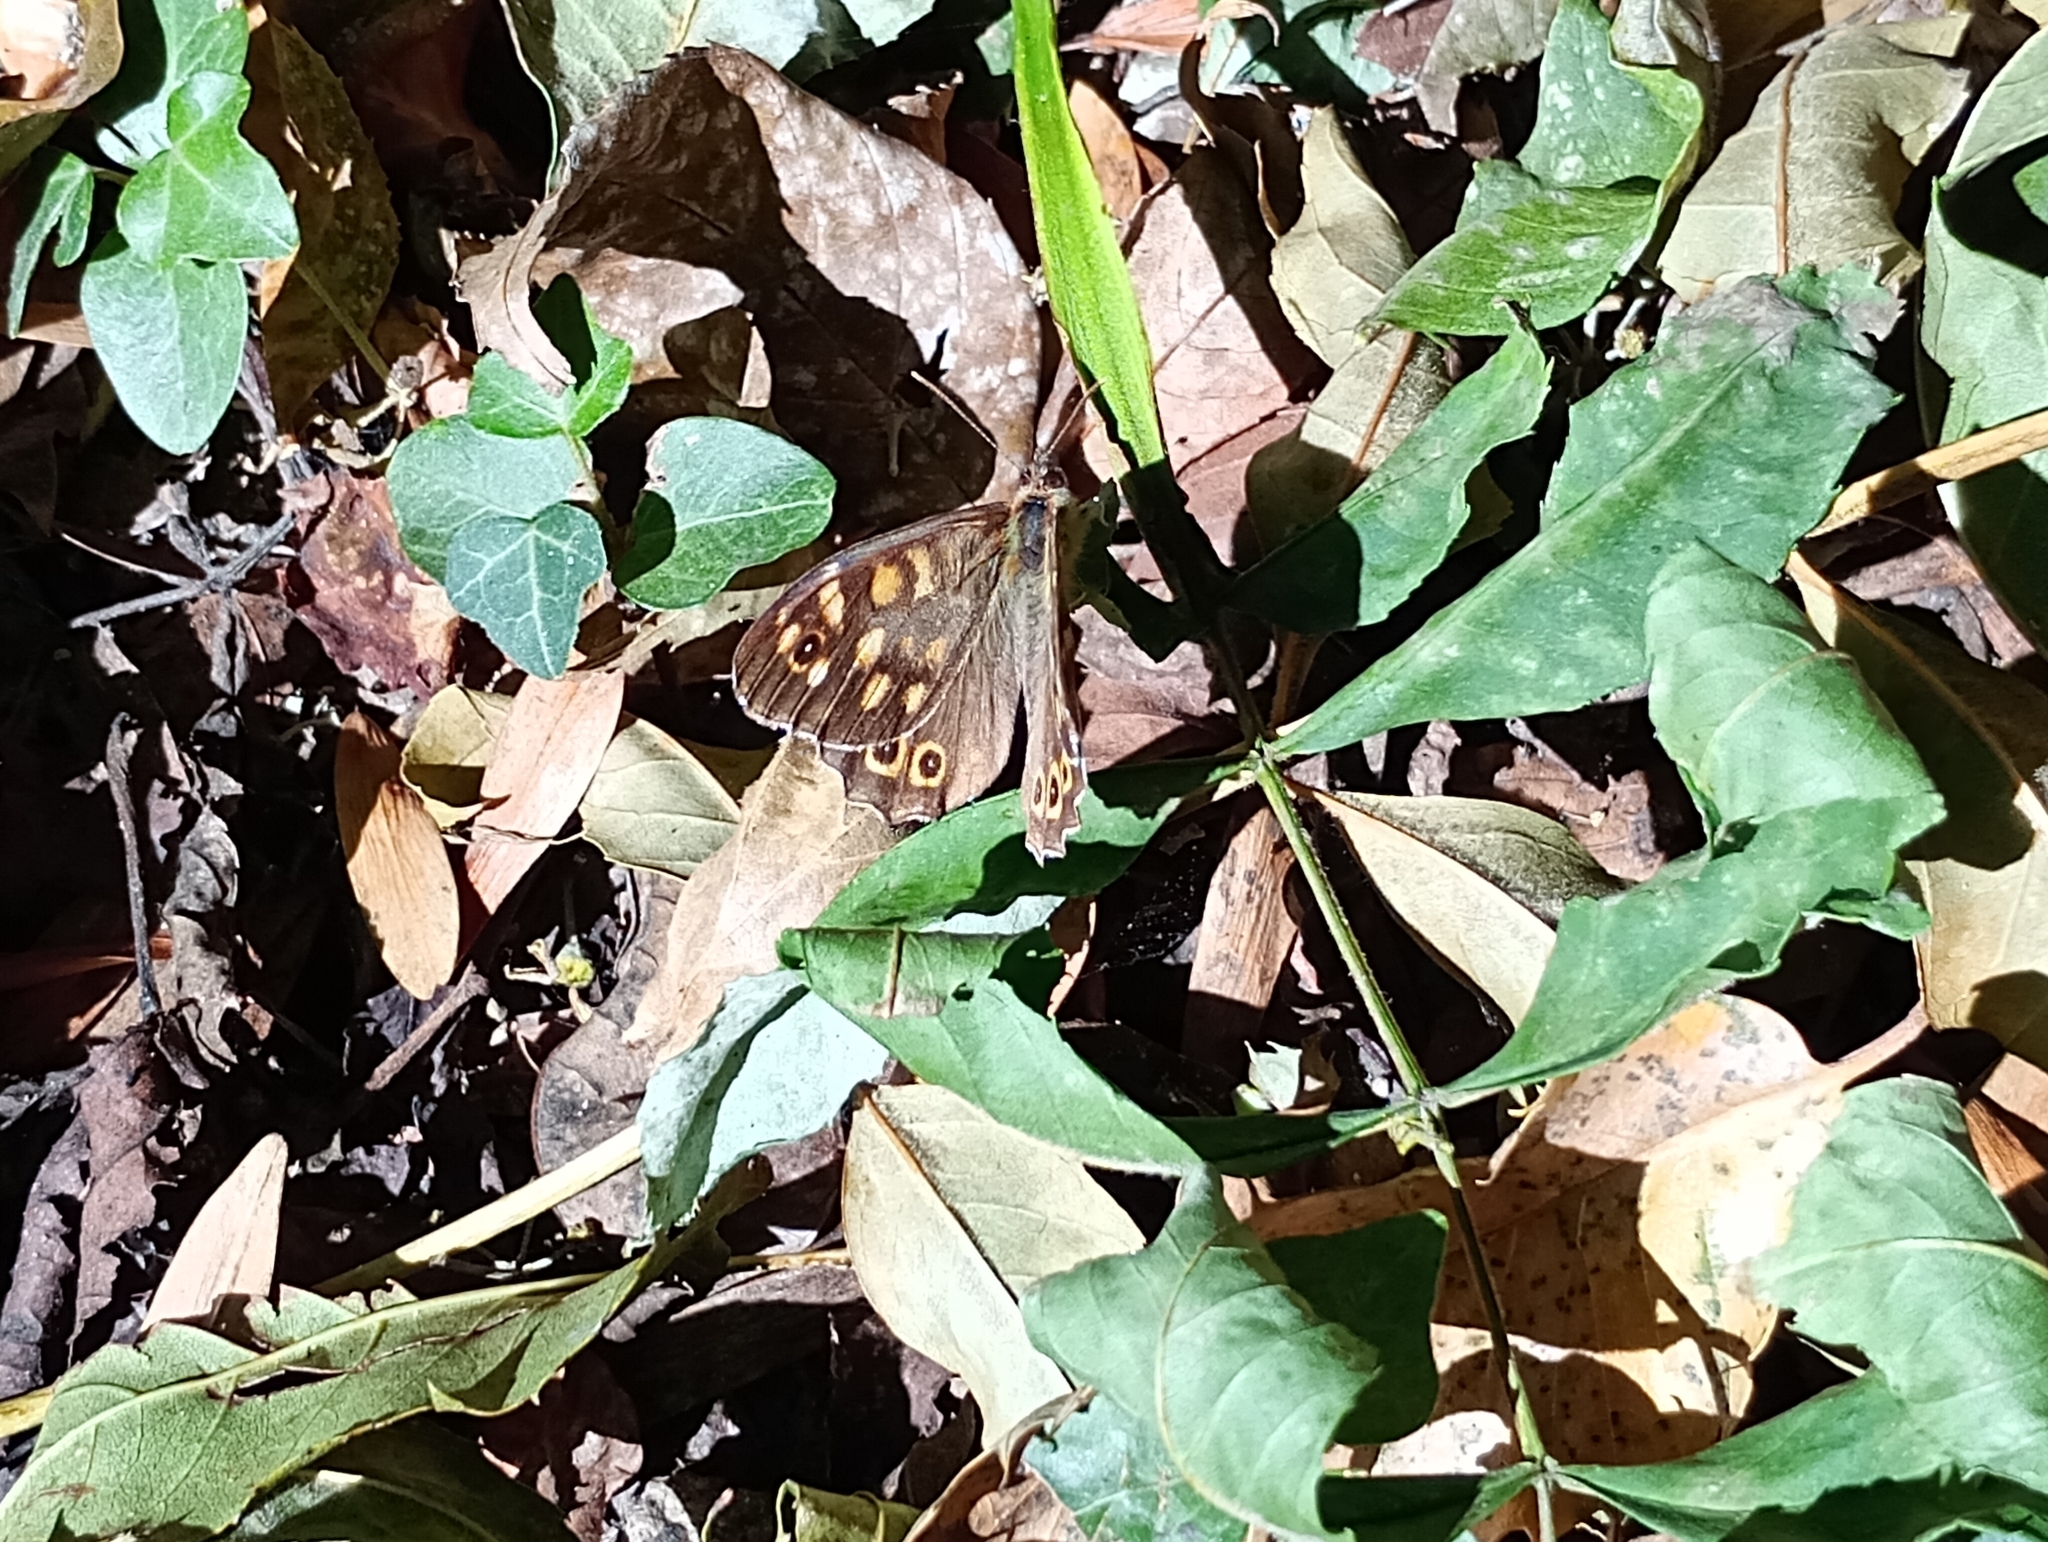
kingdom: Animalia
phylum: Arthropoda
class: Insecta
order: Lepidoptera
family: Nymphalidae
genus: Pararge
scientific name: Pararge aegeria
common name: Speckled wood
